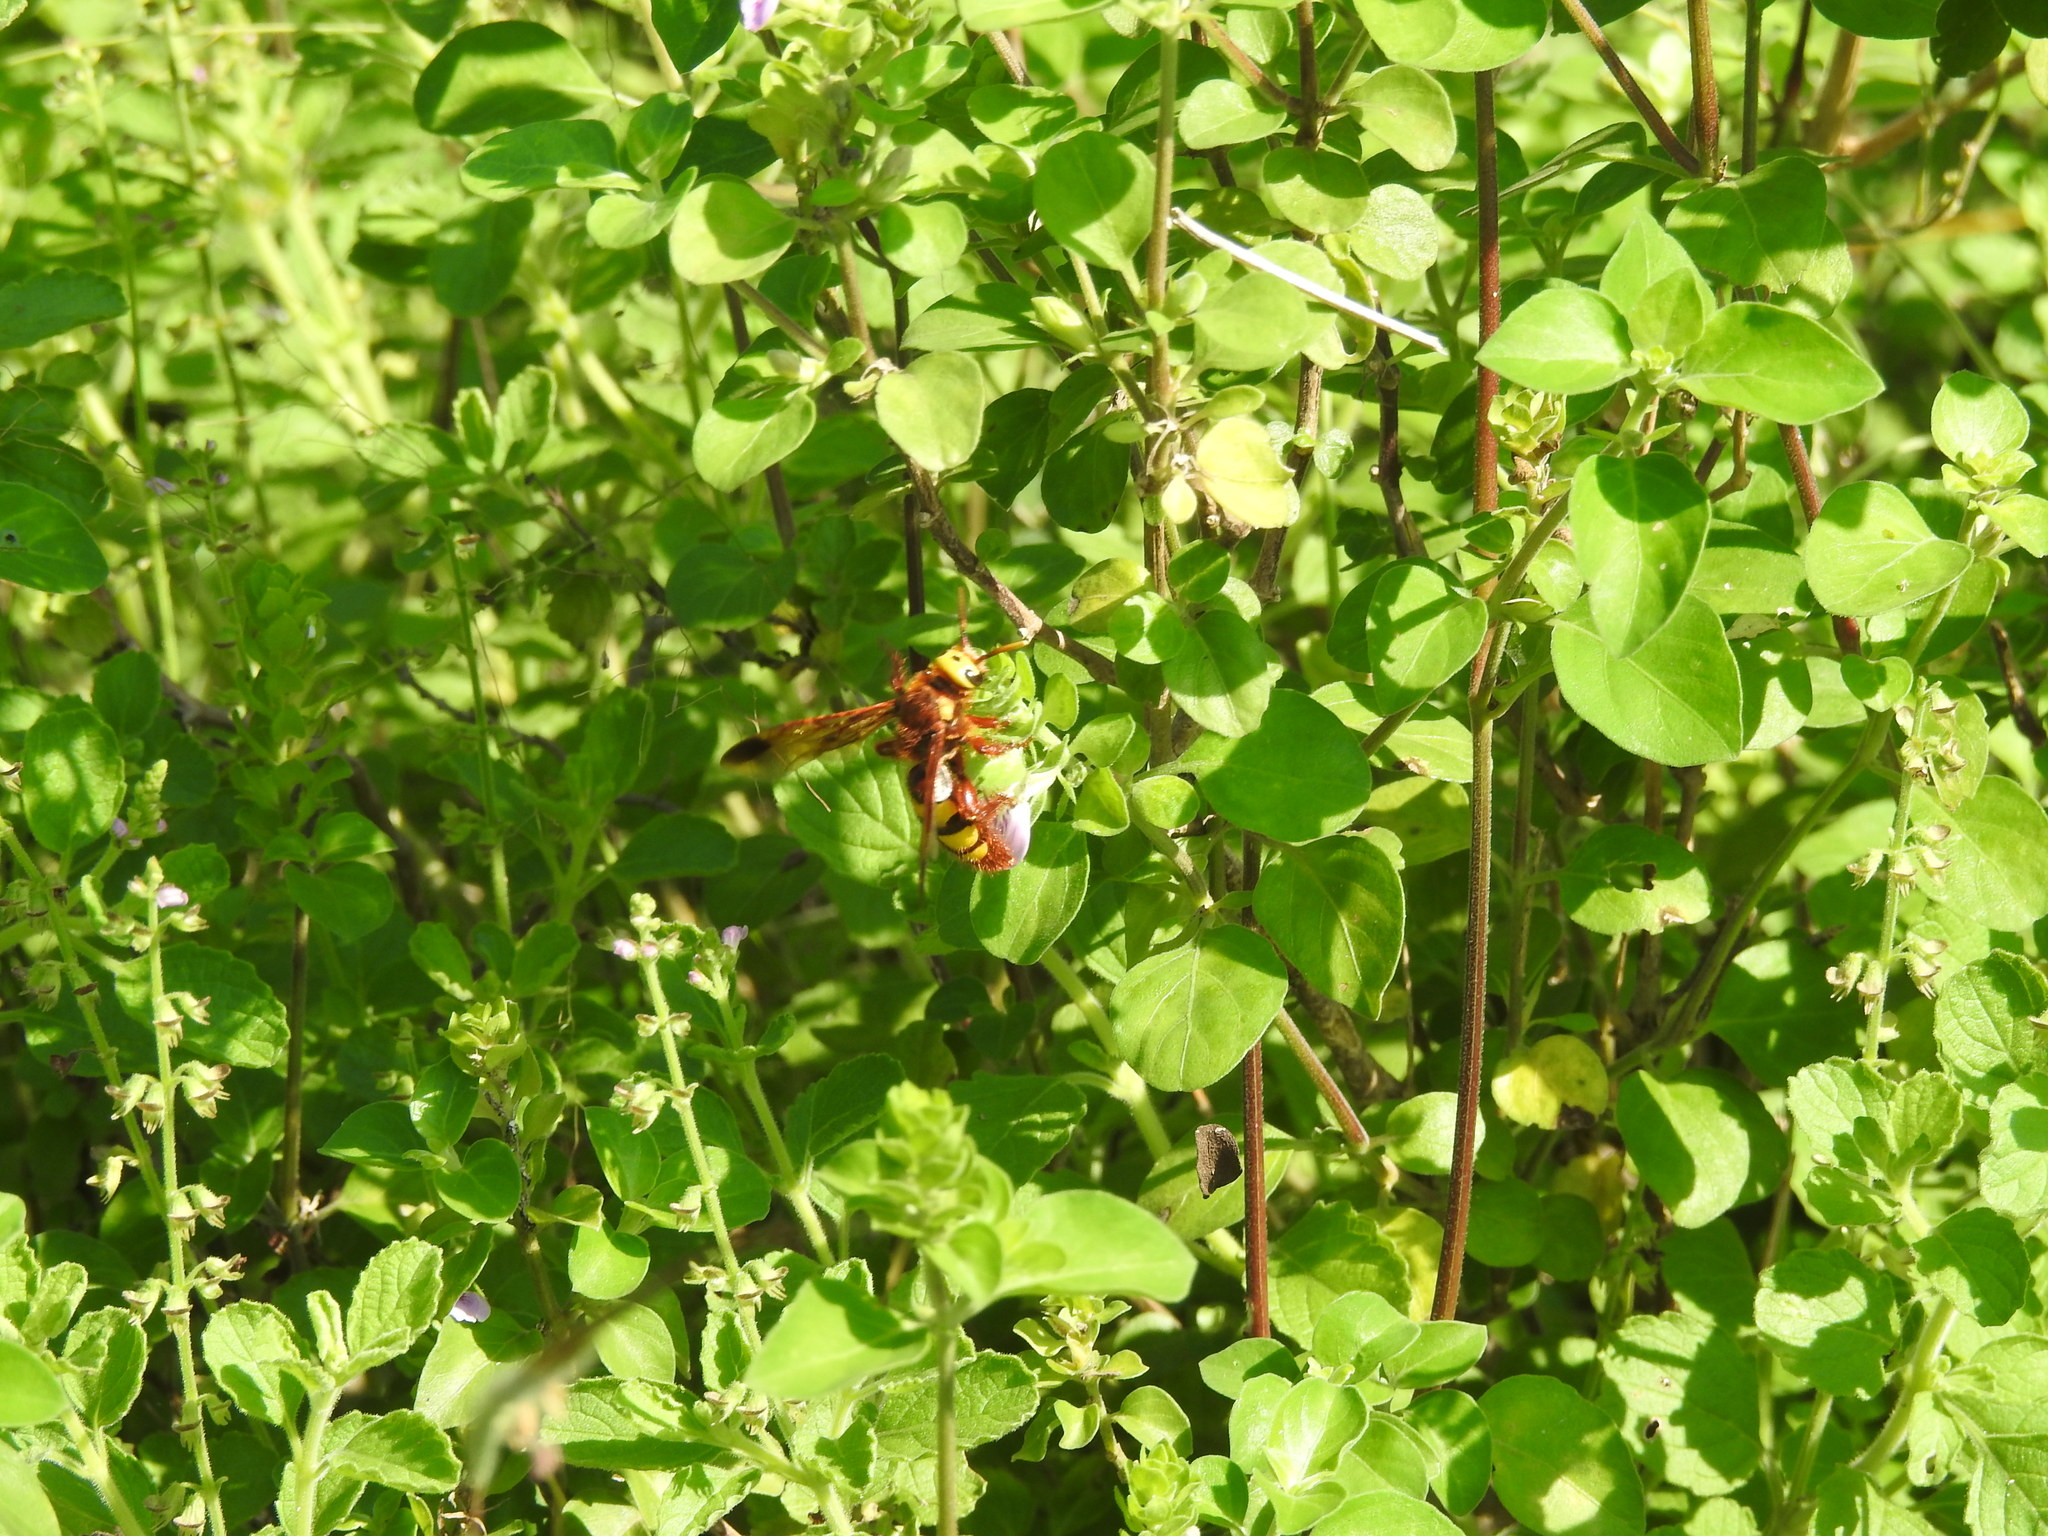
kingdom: Animalia
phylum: Arthropoda
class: Insecta
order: Hymenoptera
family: Scoliidae
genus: Carinoscolia
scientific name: Carinoscolia Scolia picteti
